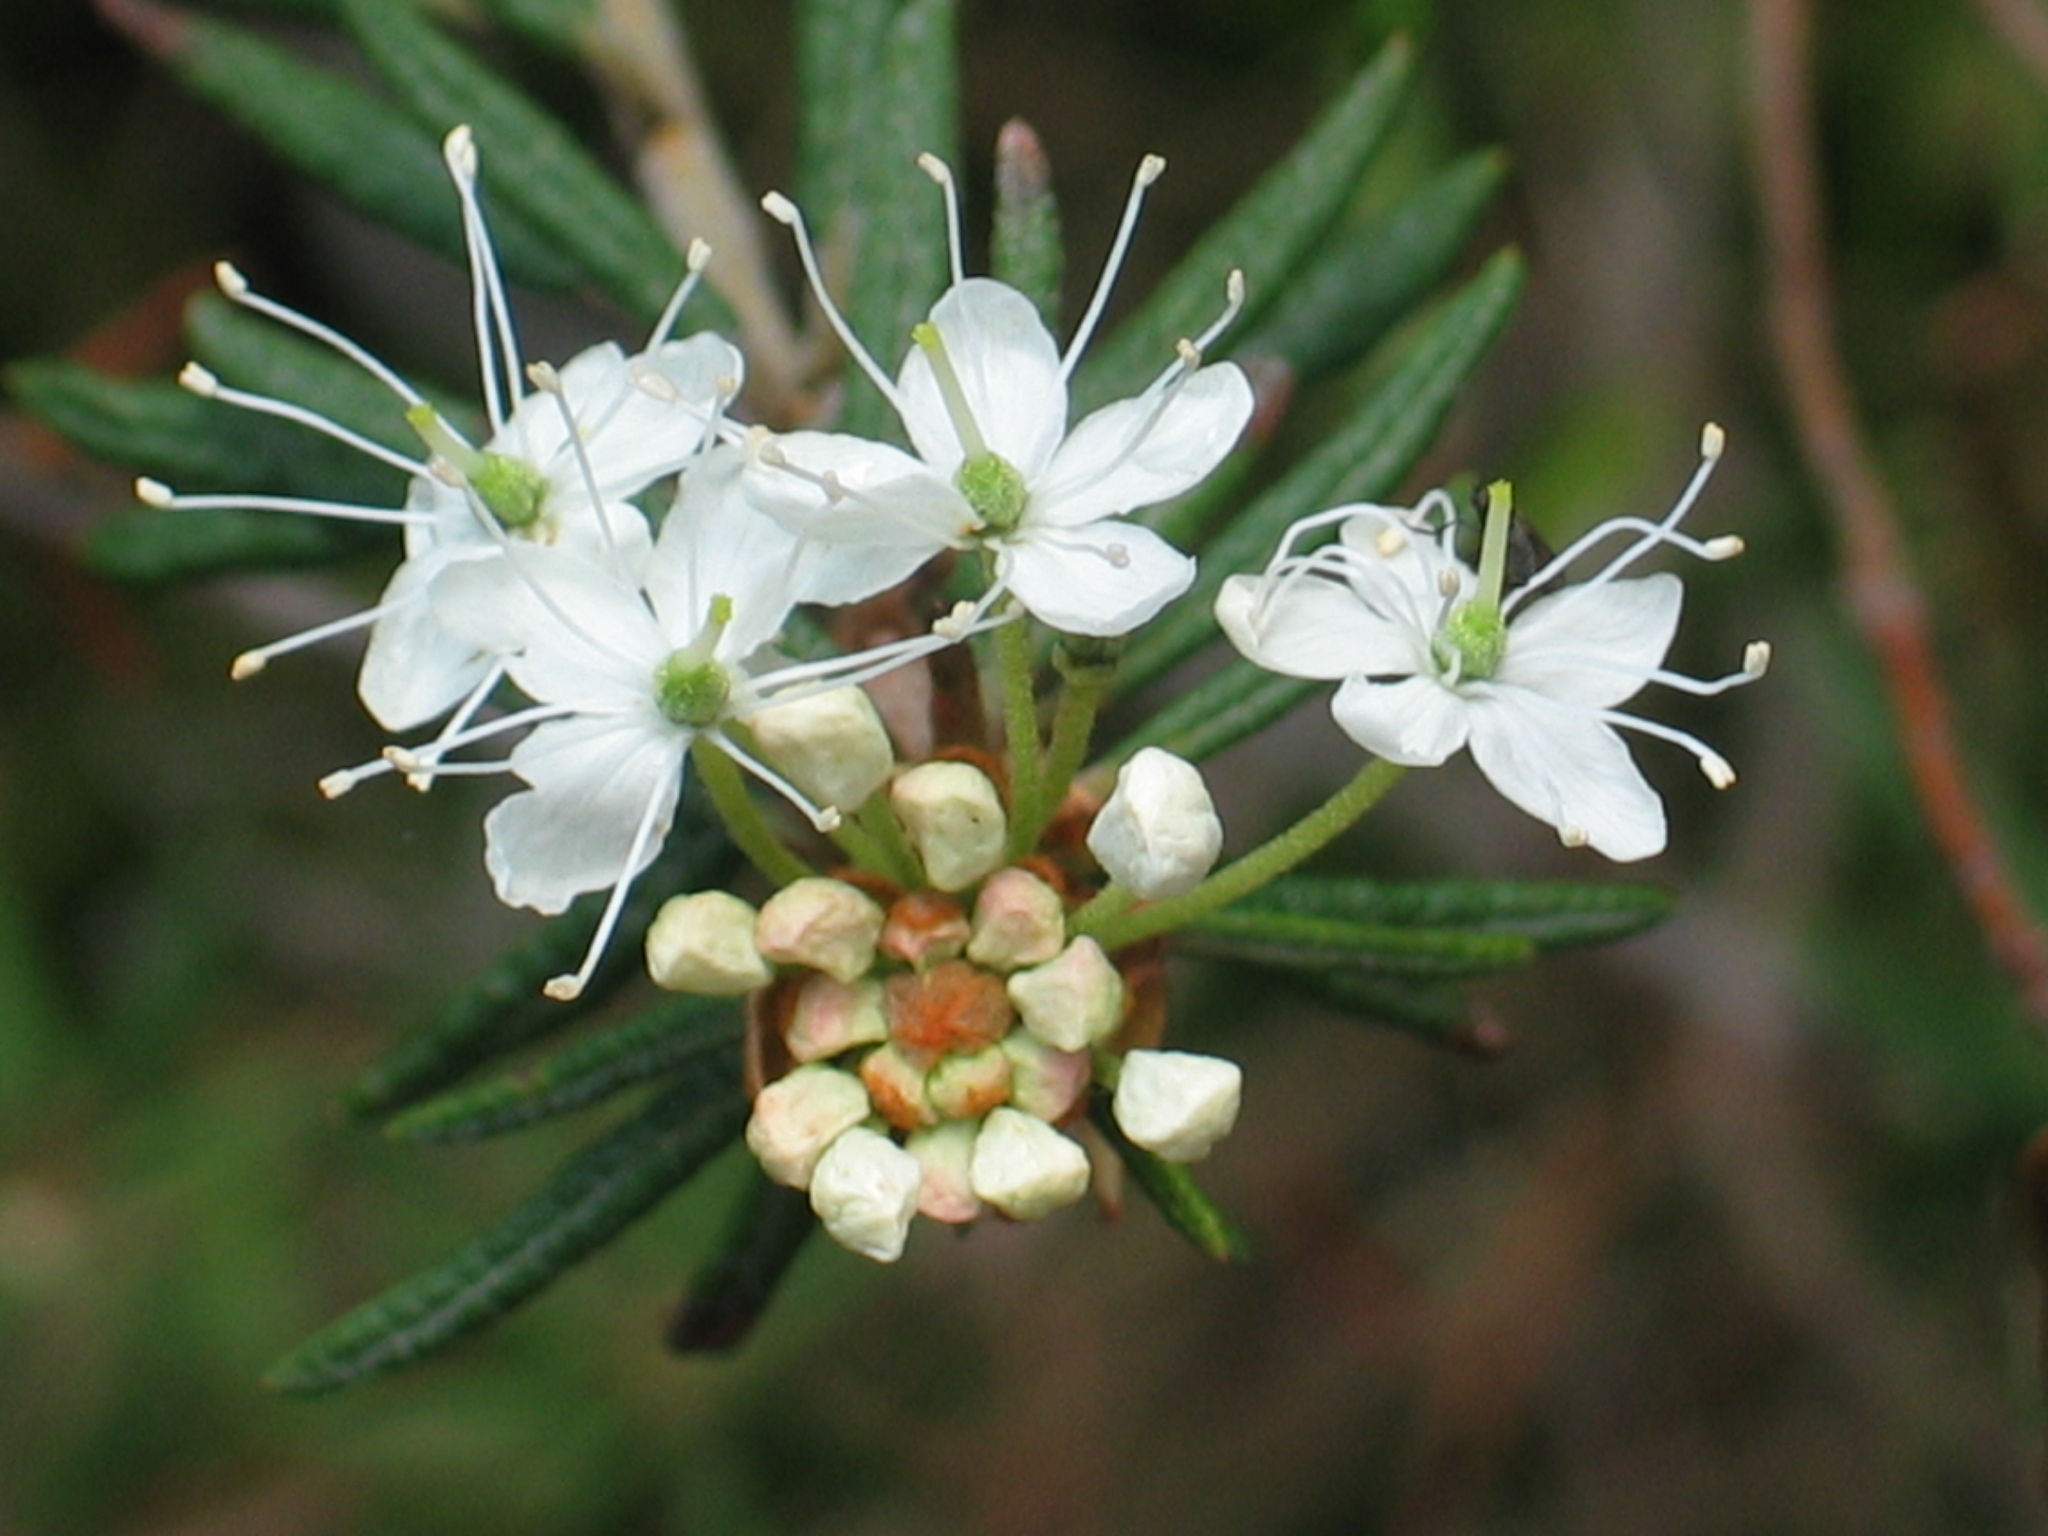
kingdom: Plantae
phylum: Tracheophyta
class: Magnoliopsida
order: Ericales
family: Ericaceae
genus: Rhododendron
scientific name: Rhododendron tomentosum
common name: Marsh labrador tea
